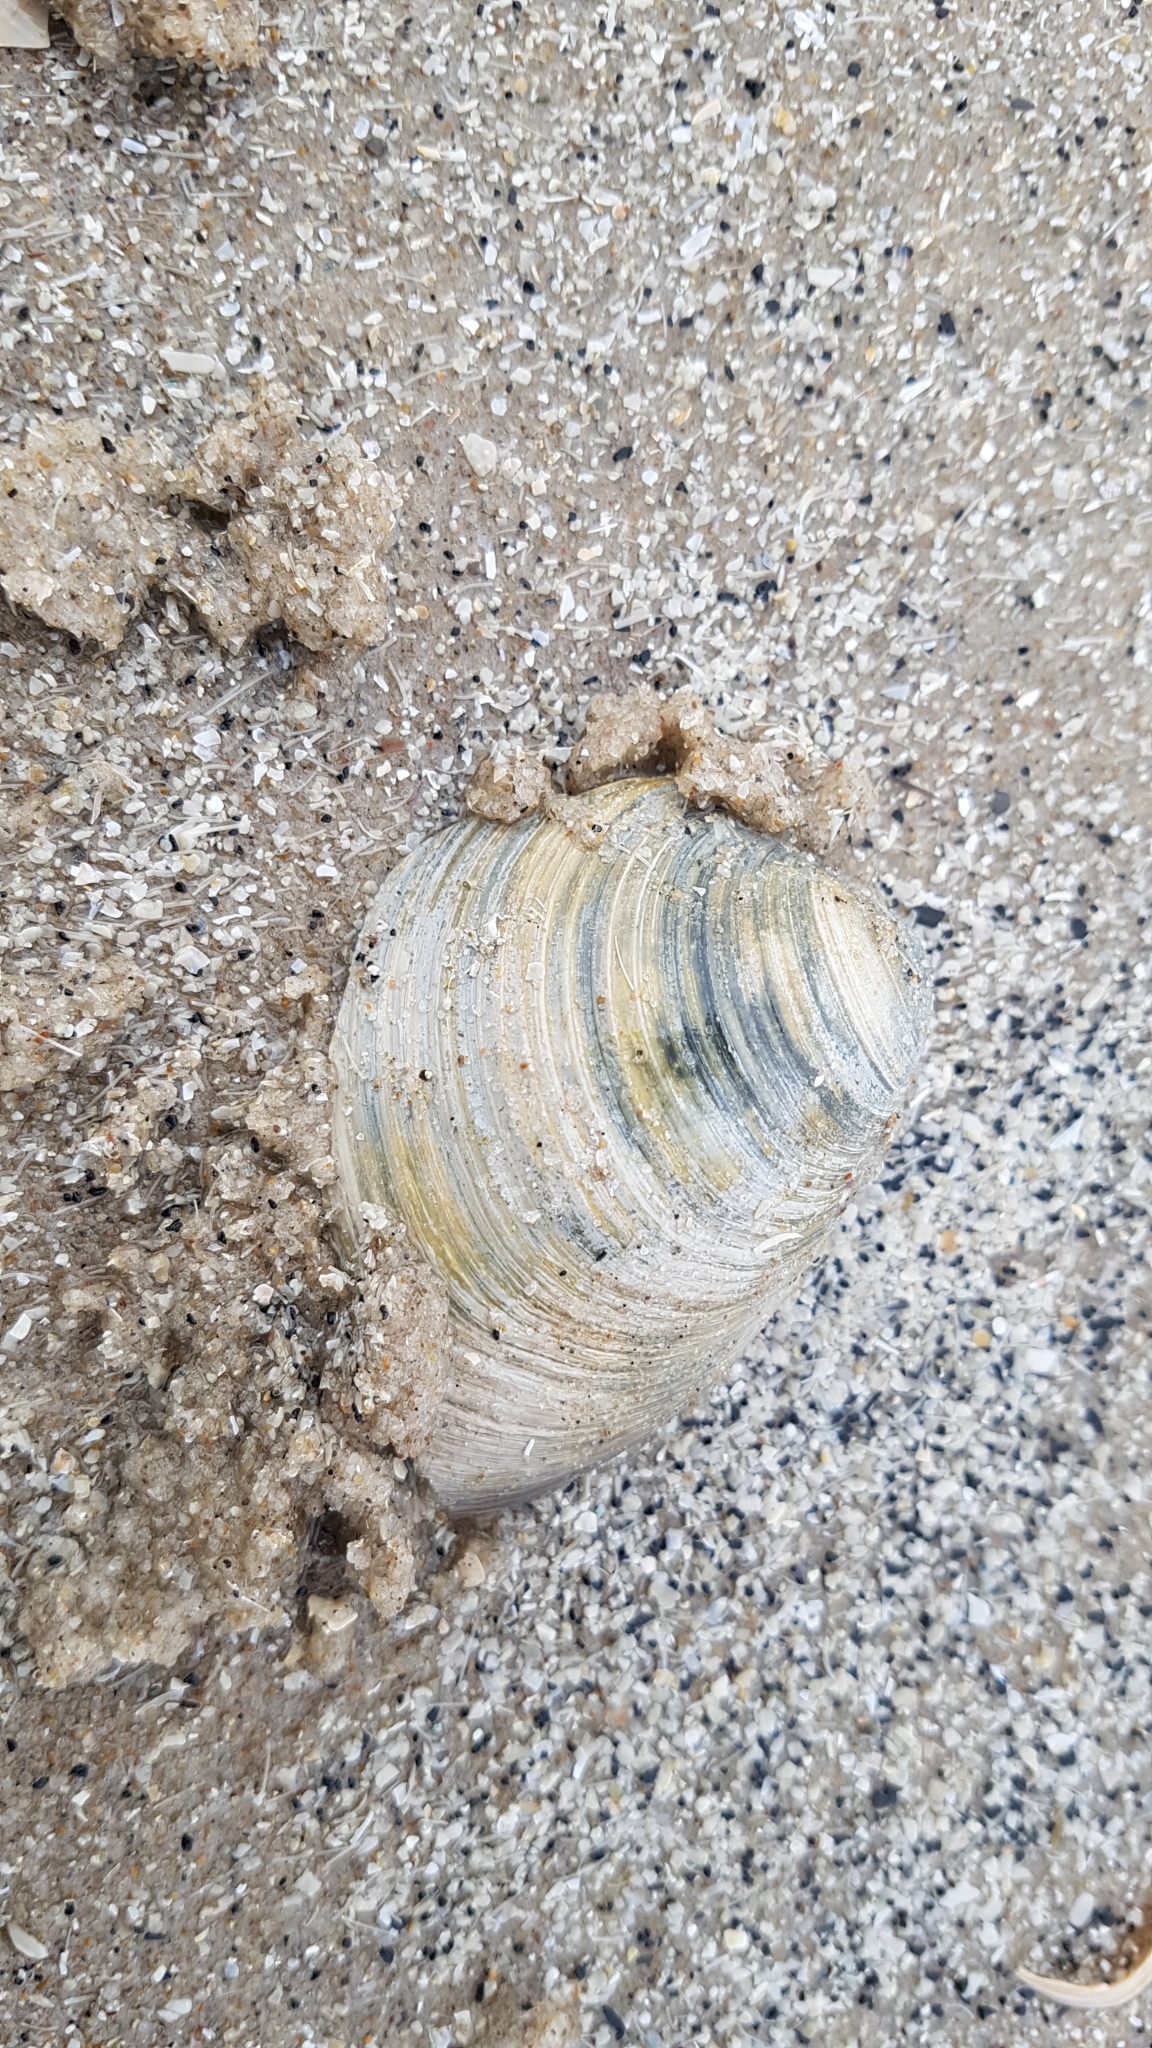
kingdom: Animalia
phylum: Mollusca
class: Bivalvia
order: Venerida
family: Arcticidae
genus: Arctica
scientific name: Arctica islandica
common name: Icelandic cyprine
